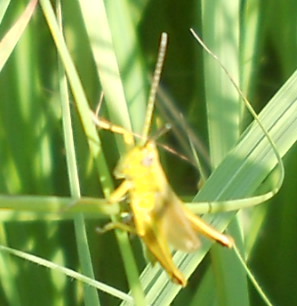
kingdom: Animalia
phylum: Arthropoda
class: Insecta
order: Orthoptera
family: Acrididae
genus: Chrysochraon
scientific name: Chrysochraon dispar
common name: Large gold grasshopper
